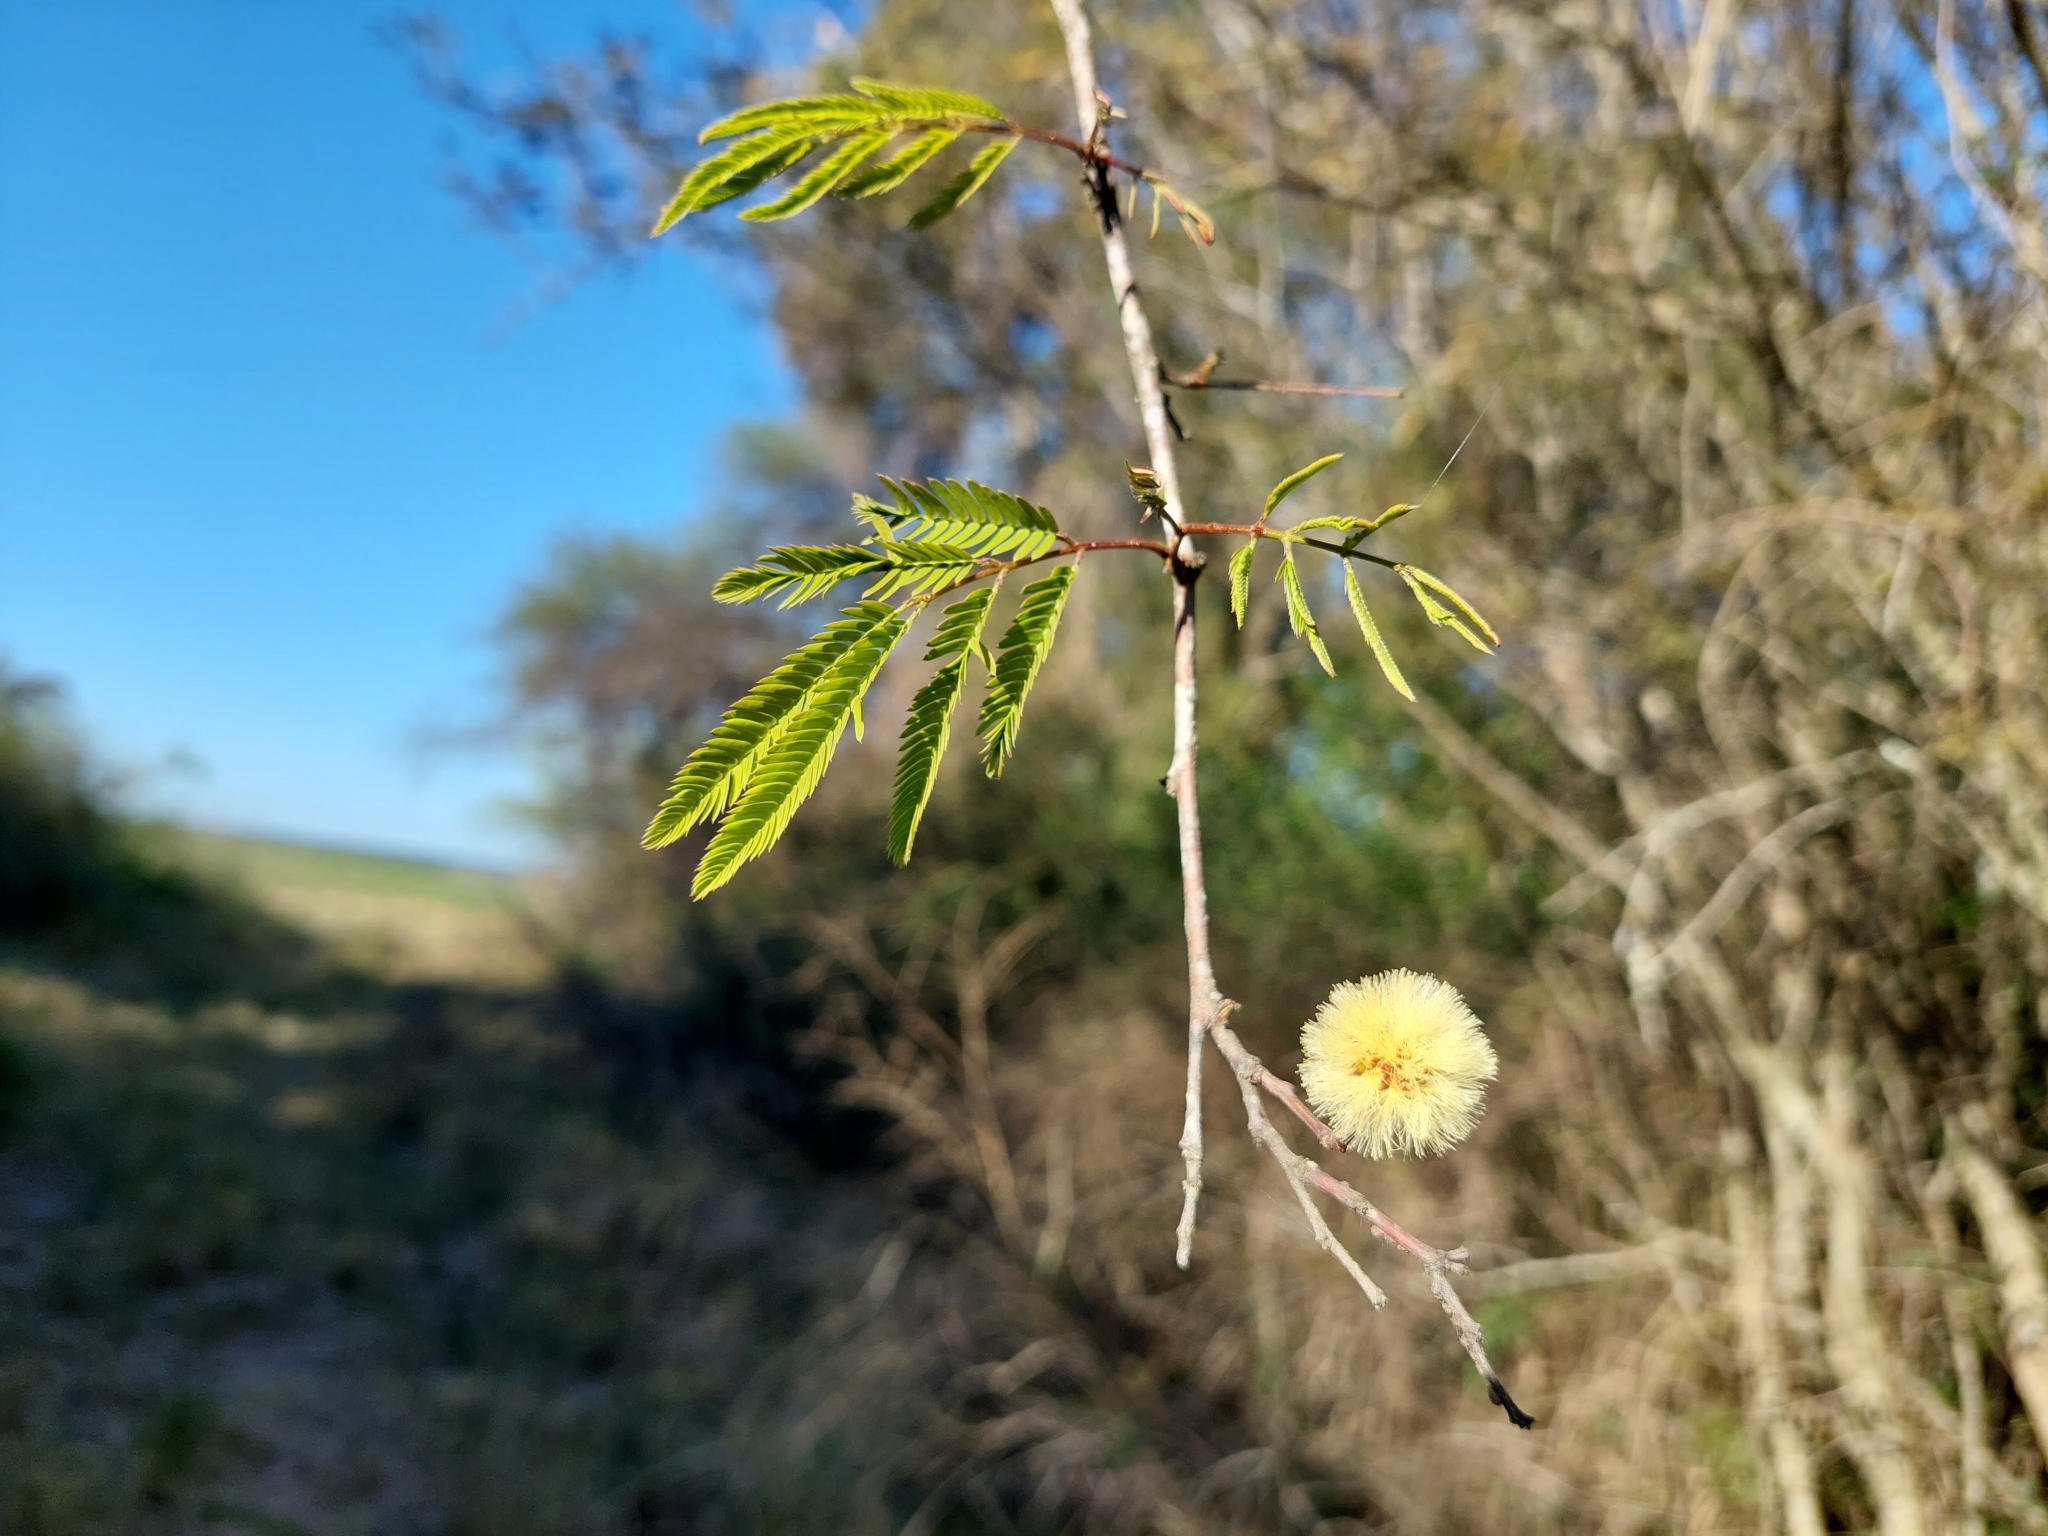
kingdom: Plantae
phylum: Tracheophyta
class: Magnoliopsida
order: Fabales
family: Fabaceae
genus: Senegalia
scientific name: Senegalia praecox
